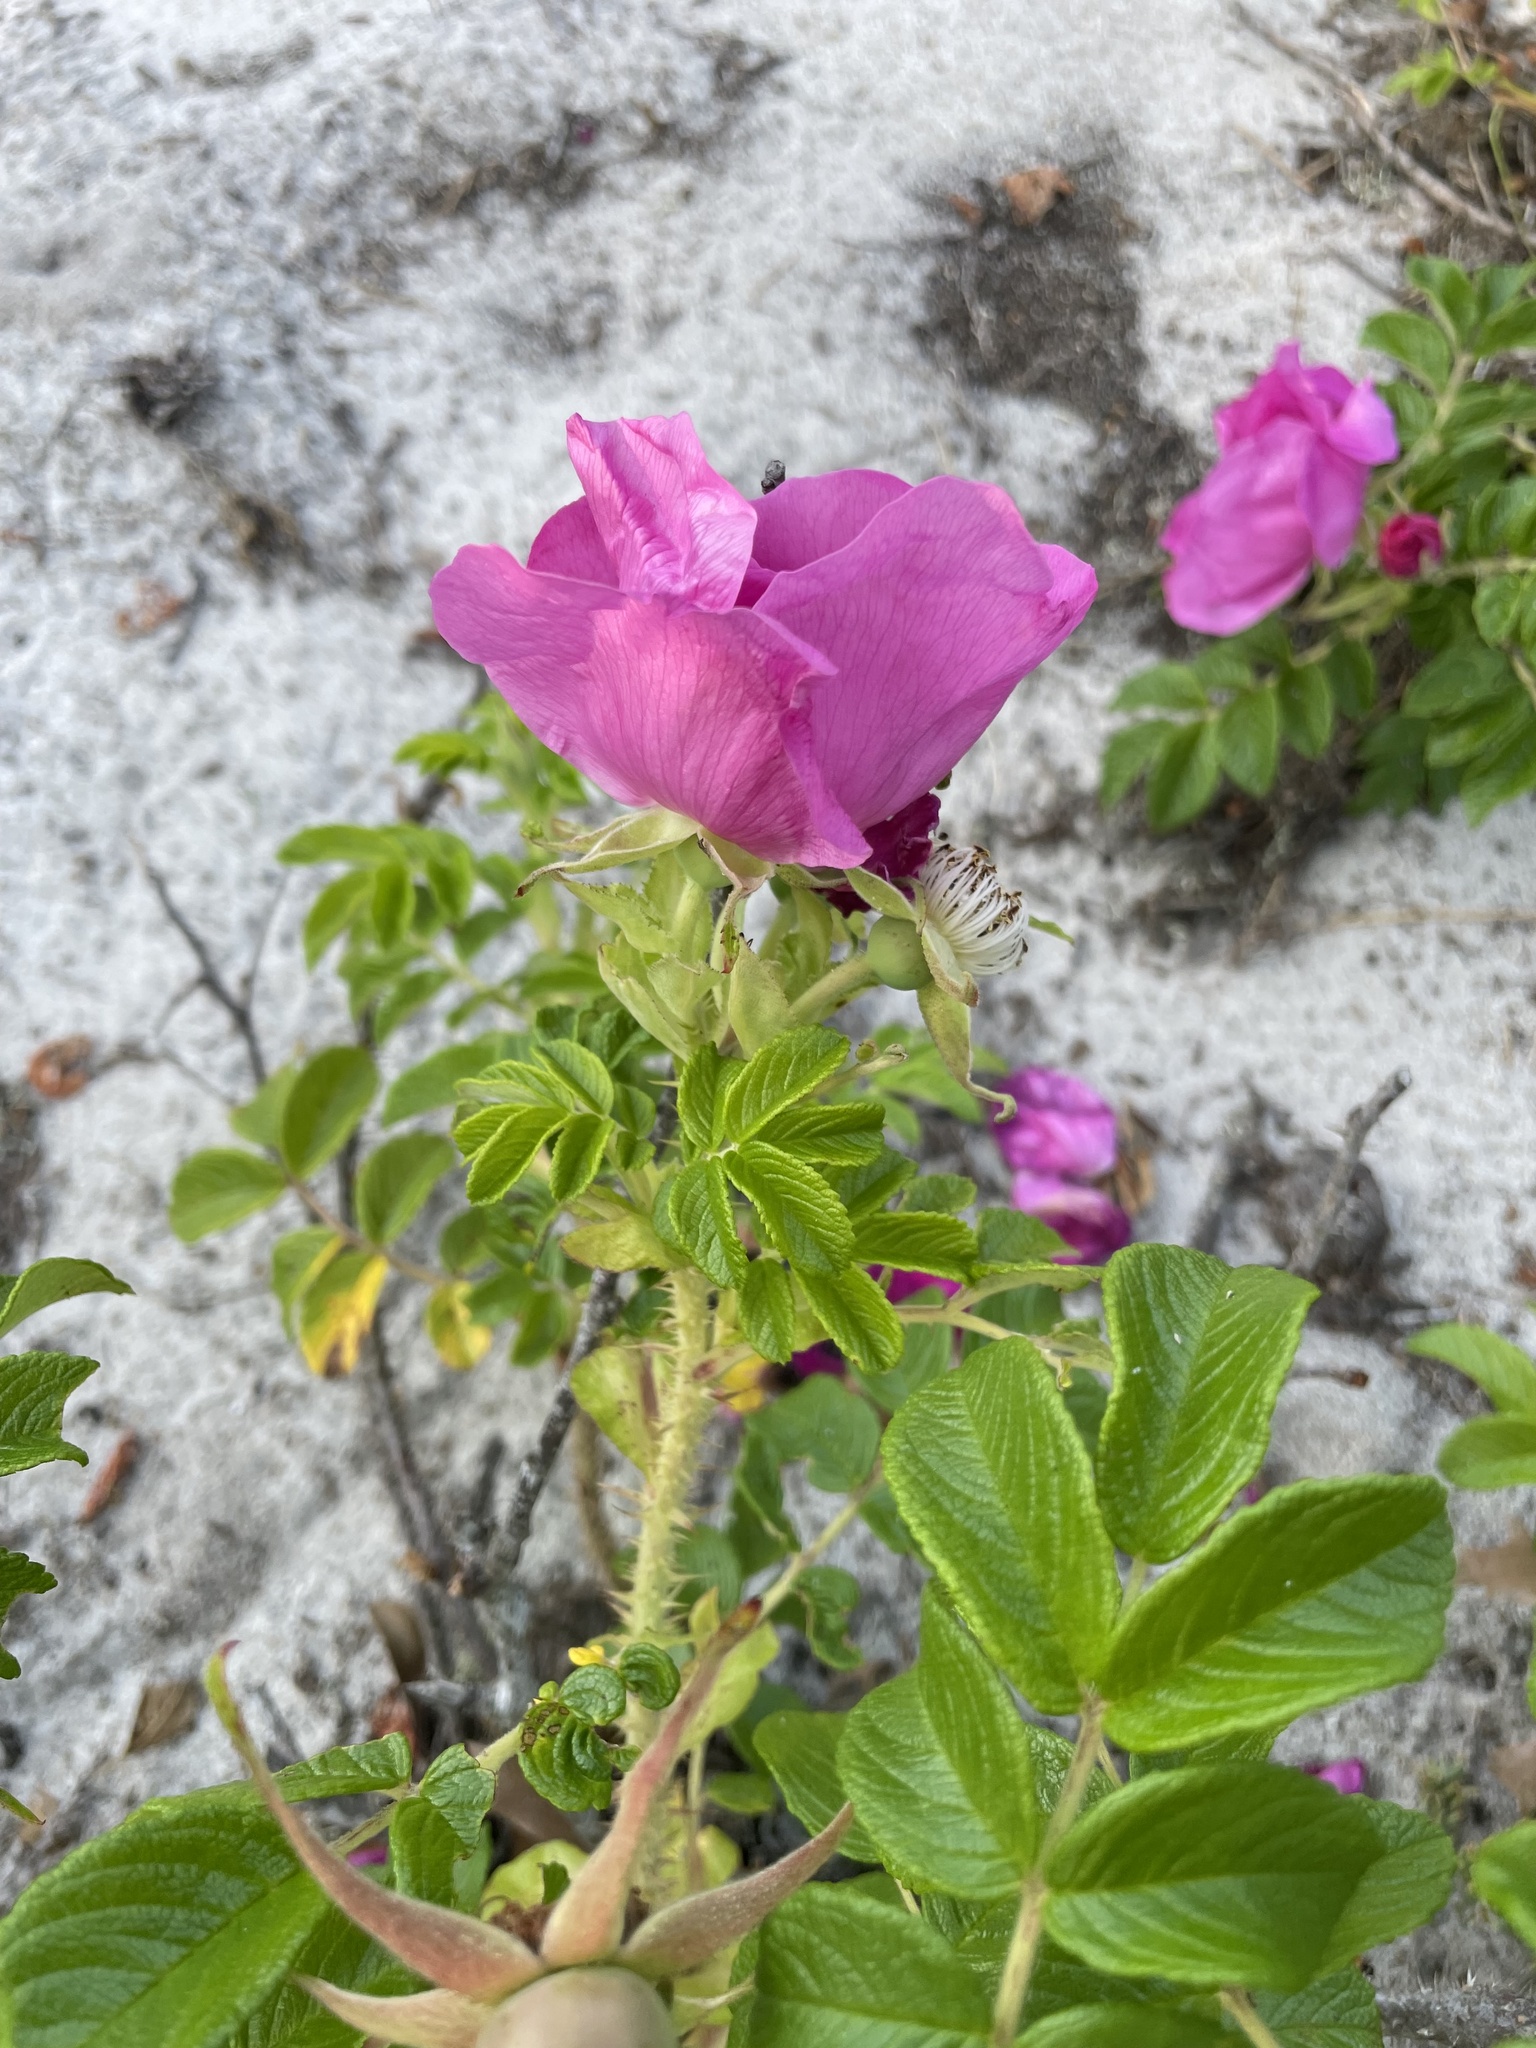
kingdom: Plantae
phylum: Tracheophyta
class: Magnoliopsida
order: Rosales
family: Rosaceae
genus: Rosa
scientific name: Rosa rugosa
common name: Japanese rose
